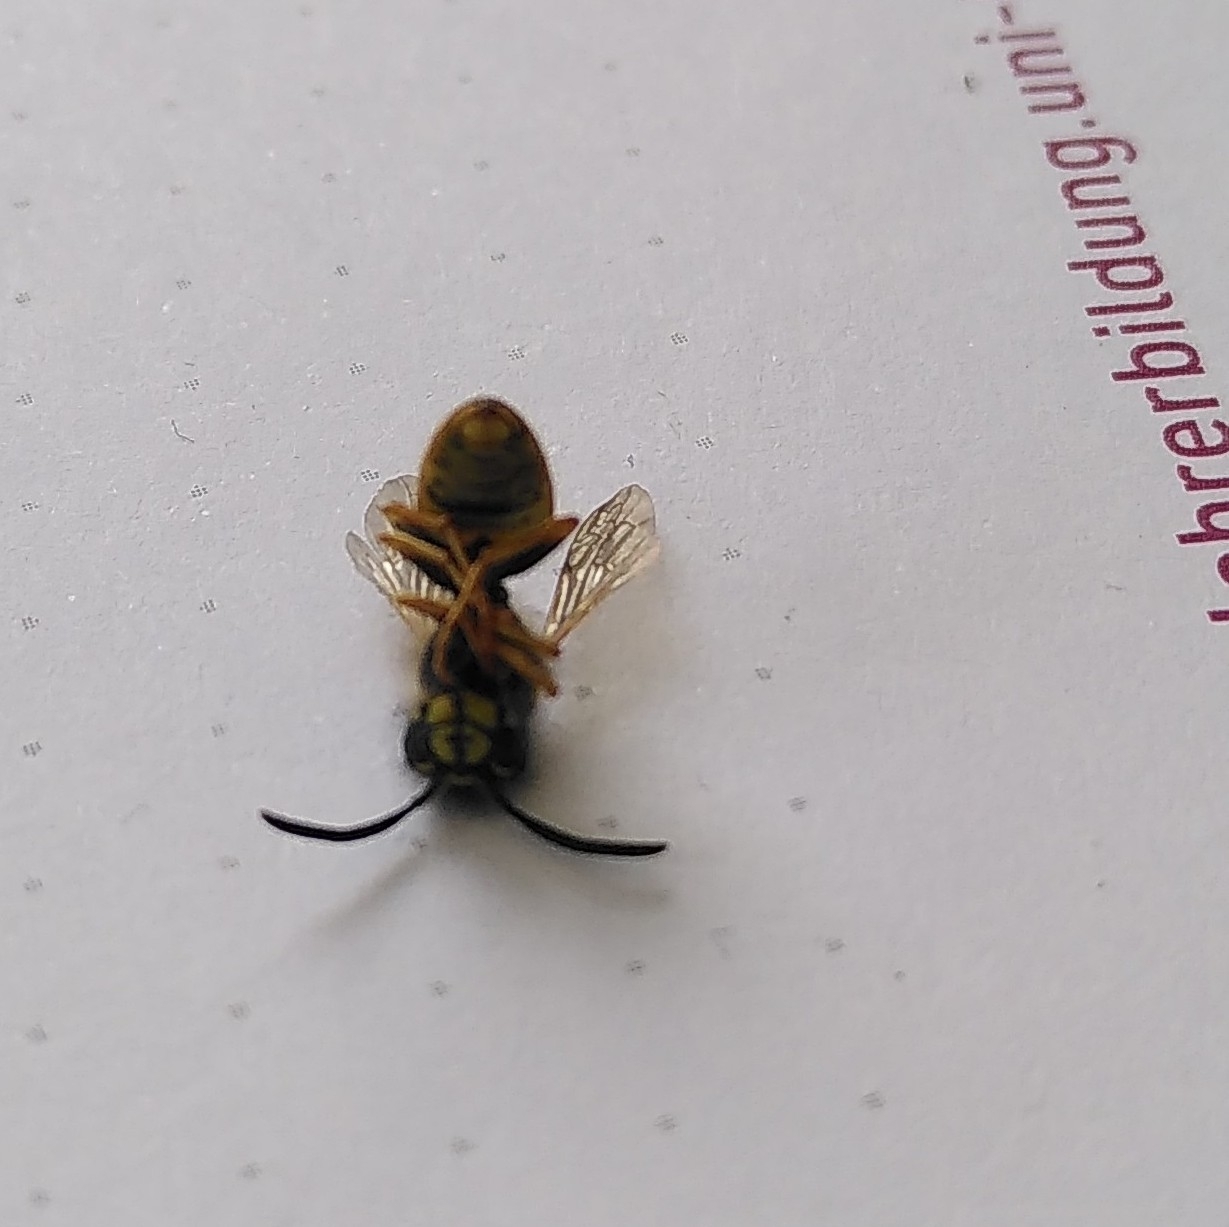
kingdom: Animalia
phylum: Arthropoda
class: Insecta
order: Hymenoptera
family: Vespidae
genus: Vespula
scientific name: Vespula vulgaris
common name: Common wasp
